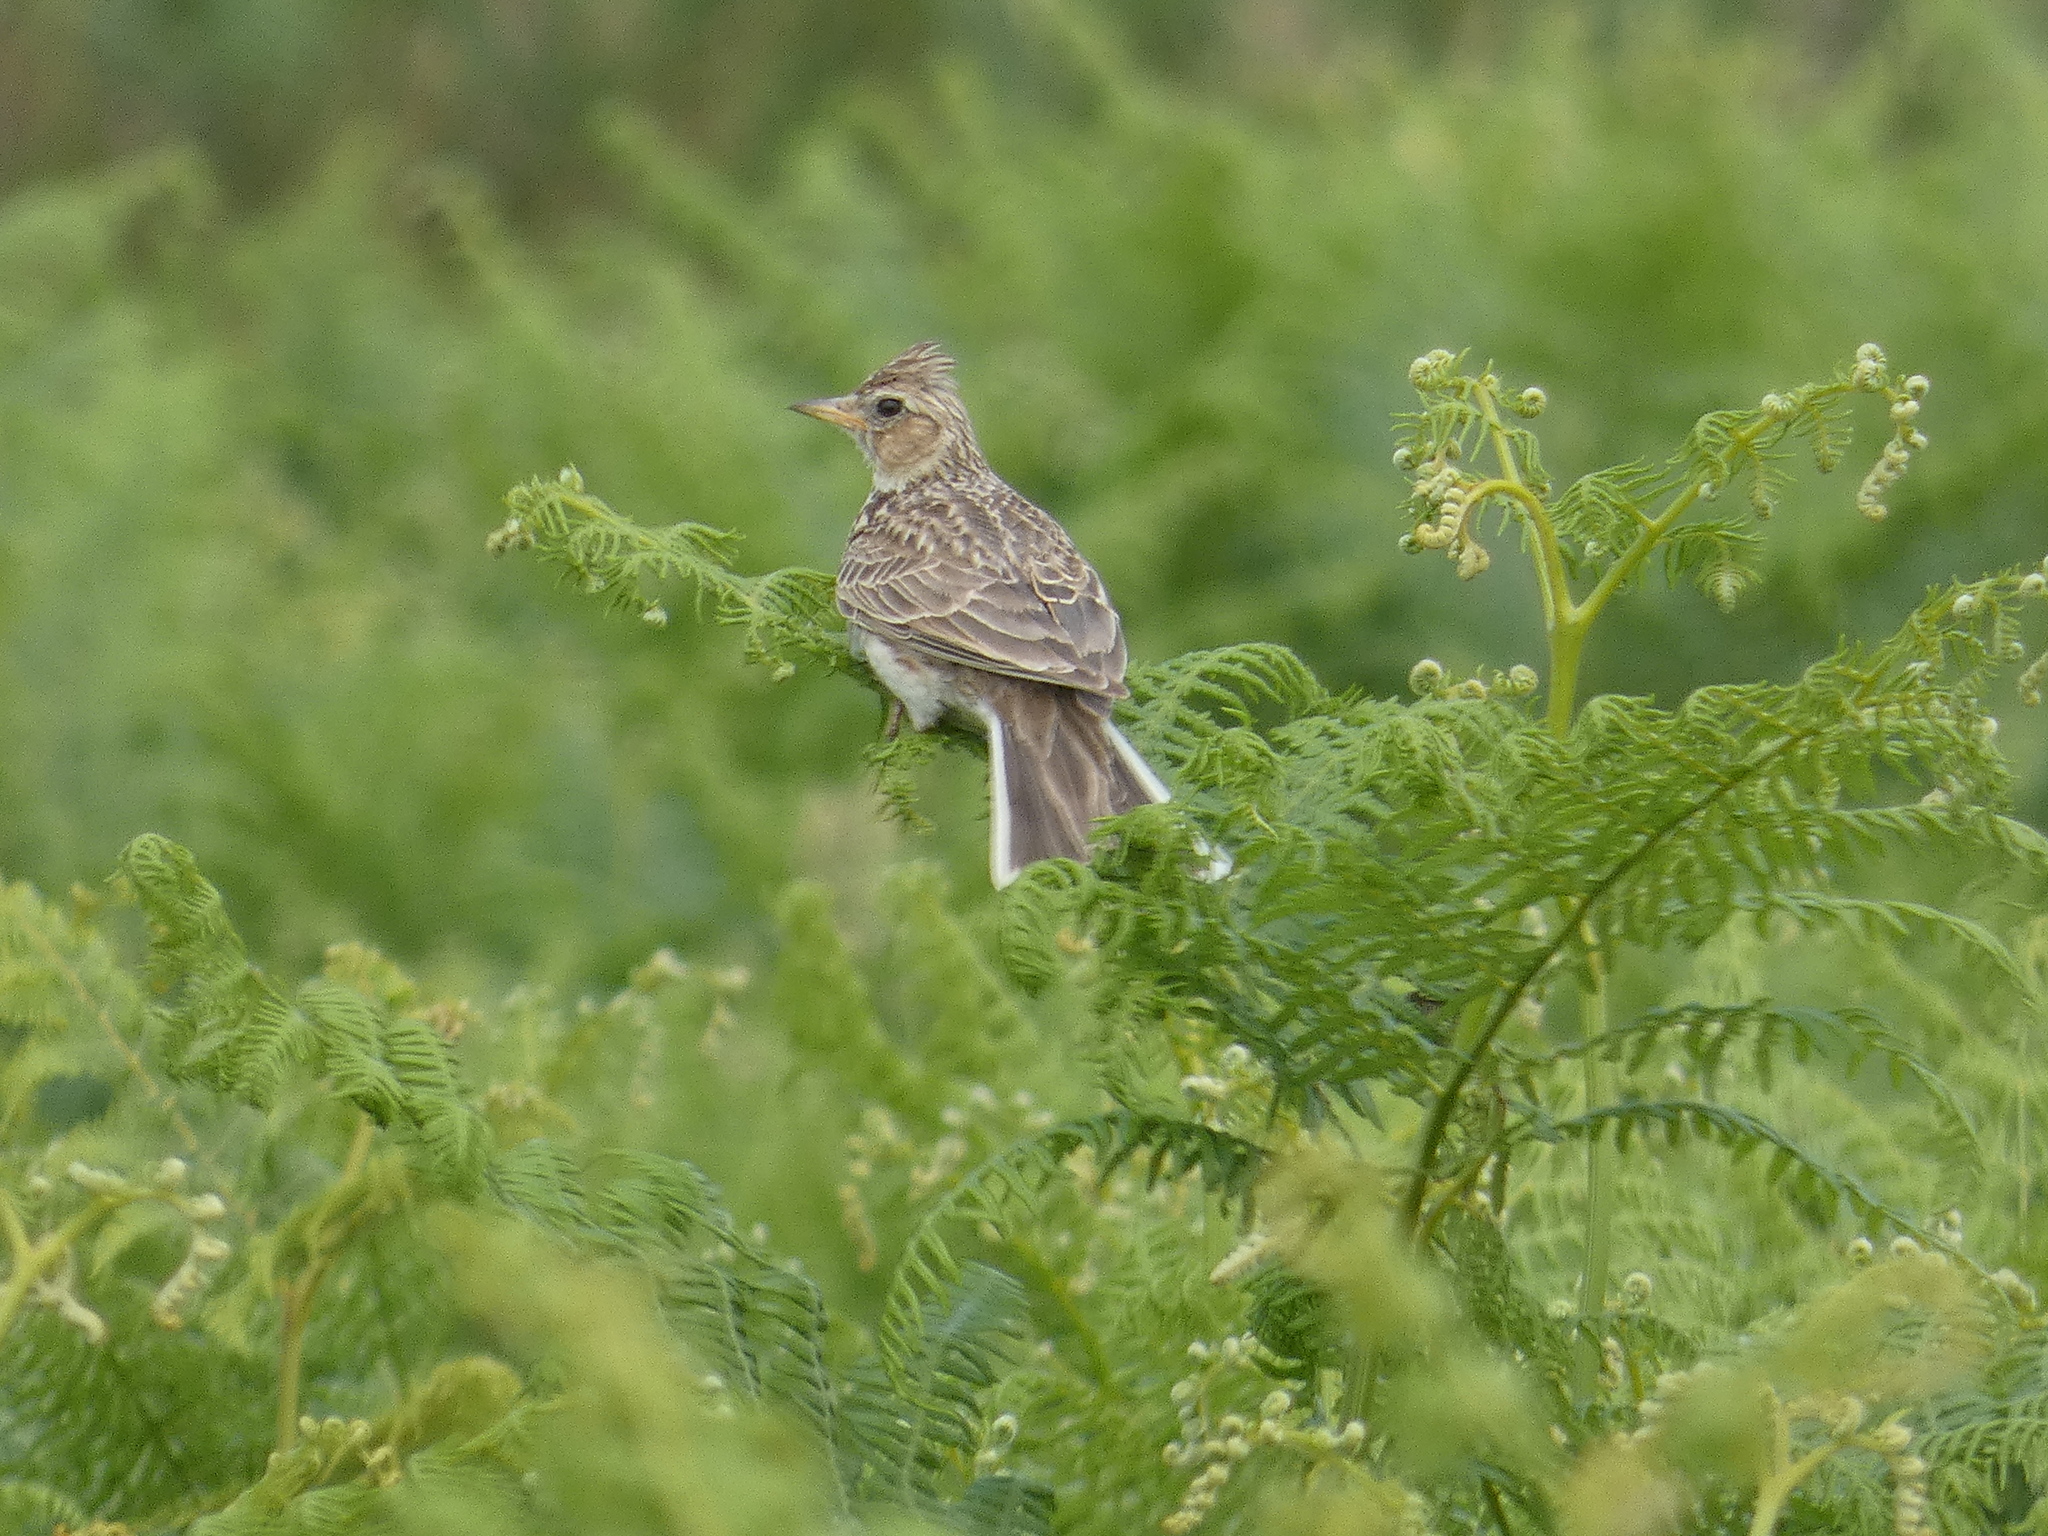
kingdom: Animalia
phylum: Chordata
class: Aves
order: Passeriformes
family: Alaudidae
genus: Alauda
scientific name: Alauda arvensis
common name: Eurasian skylark
